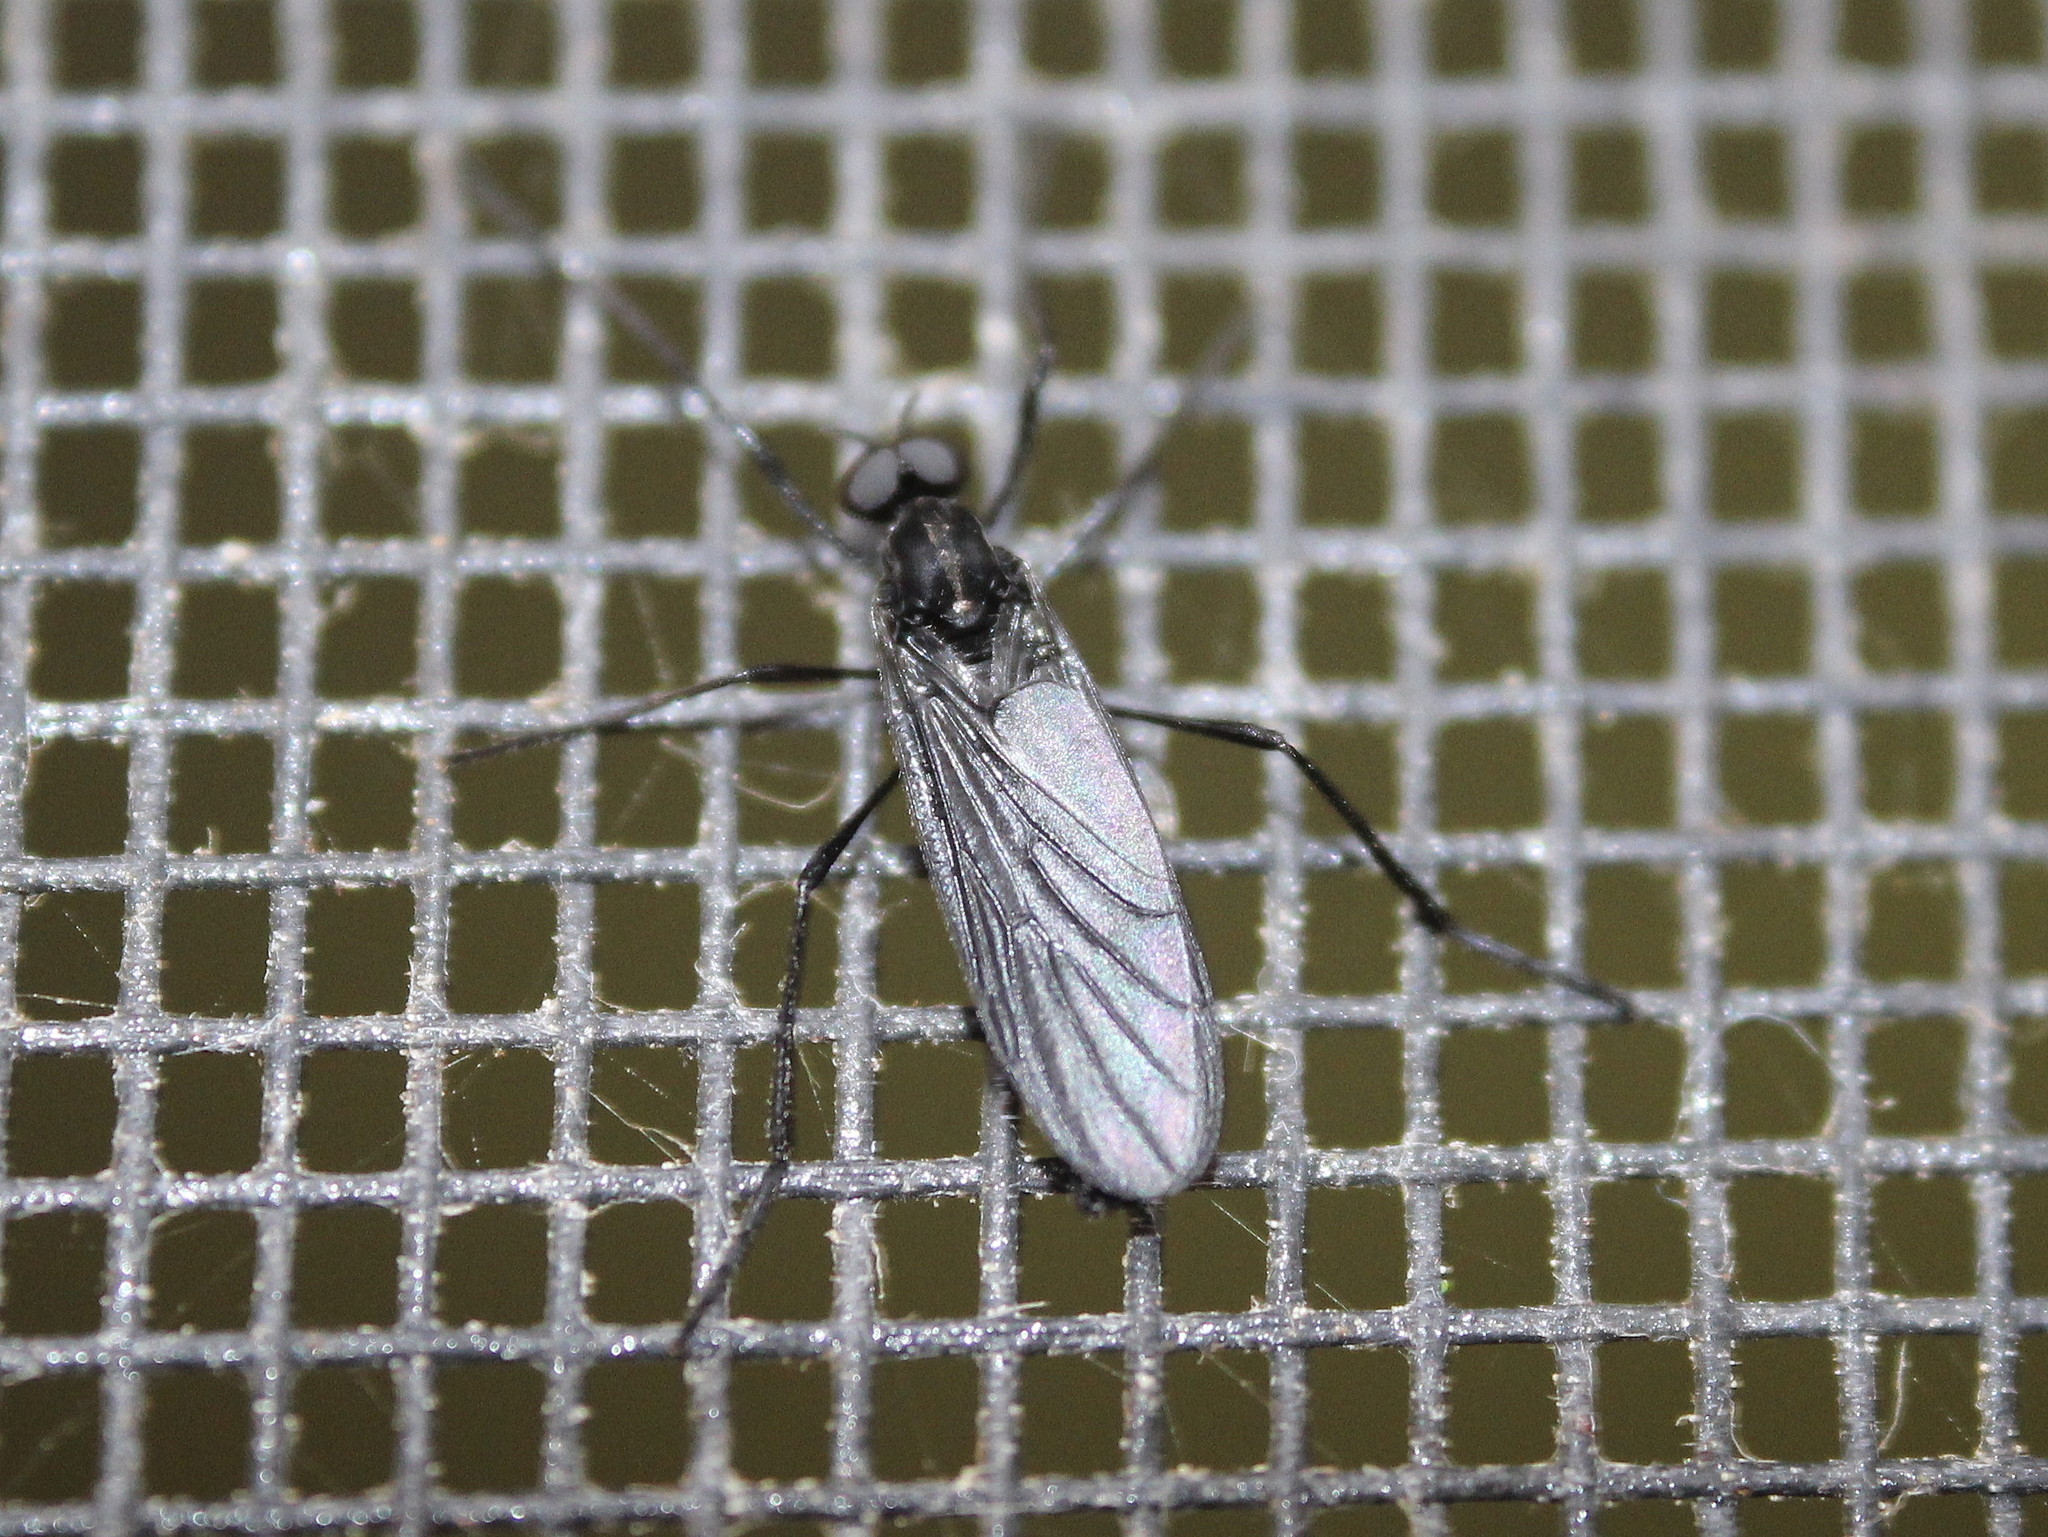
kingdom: Animalia
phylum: Arthropoda
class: Insecta
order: Diptera
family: Bibionidae
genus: Penthetria
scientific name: Penthetria heteroptera
